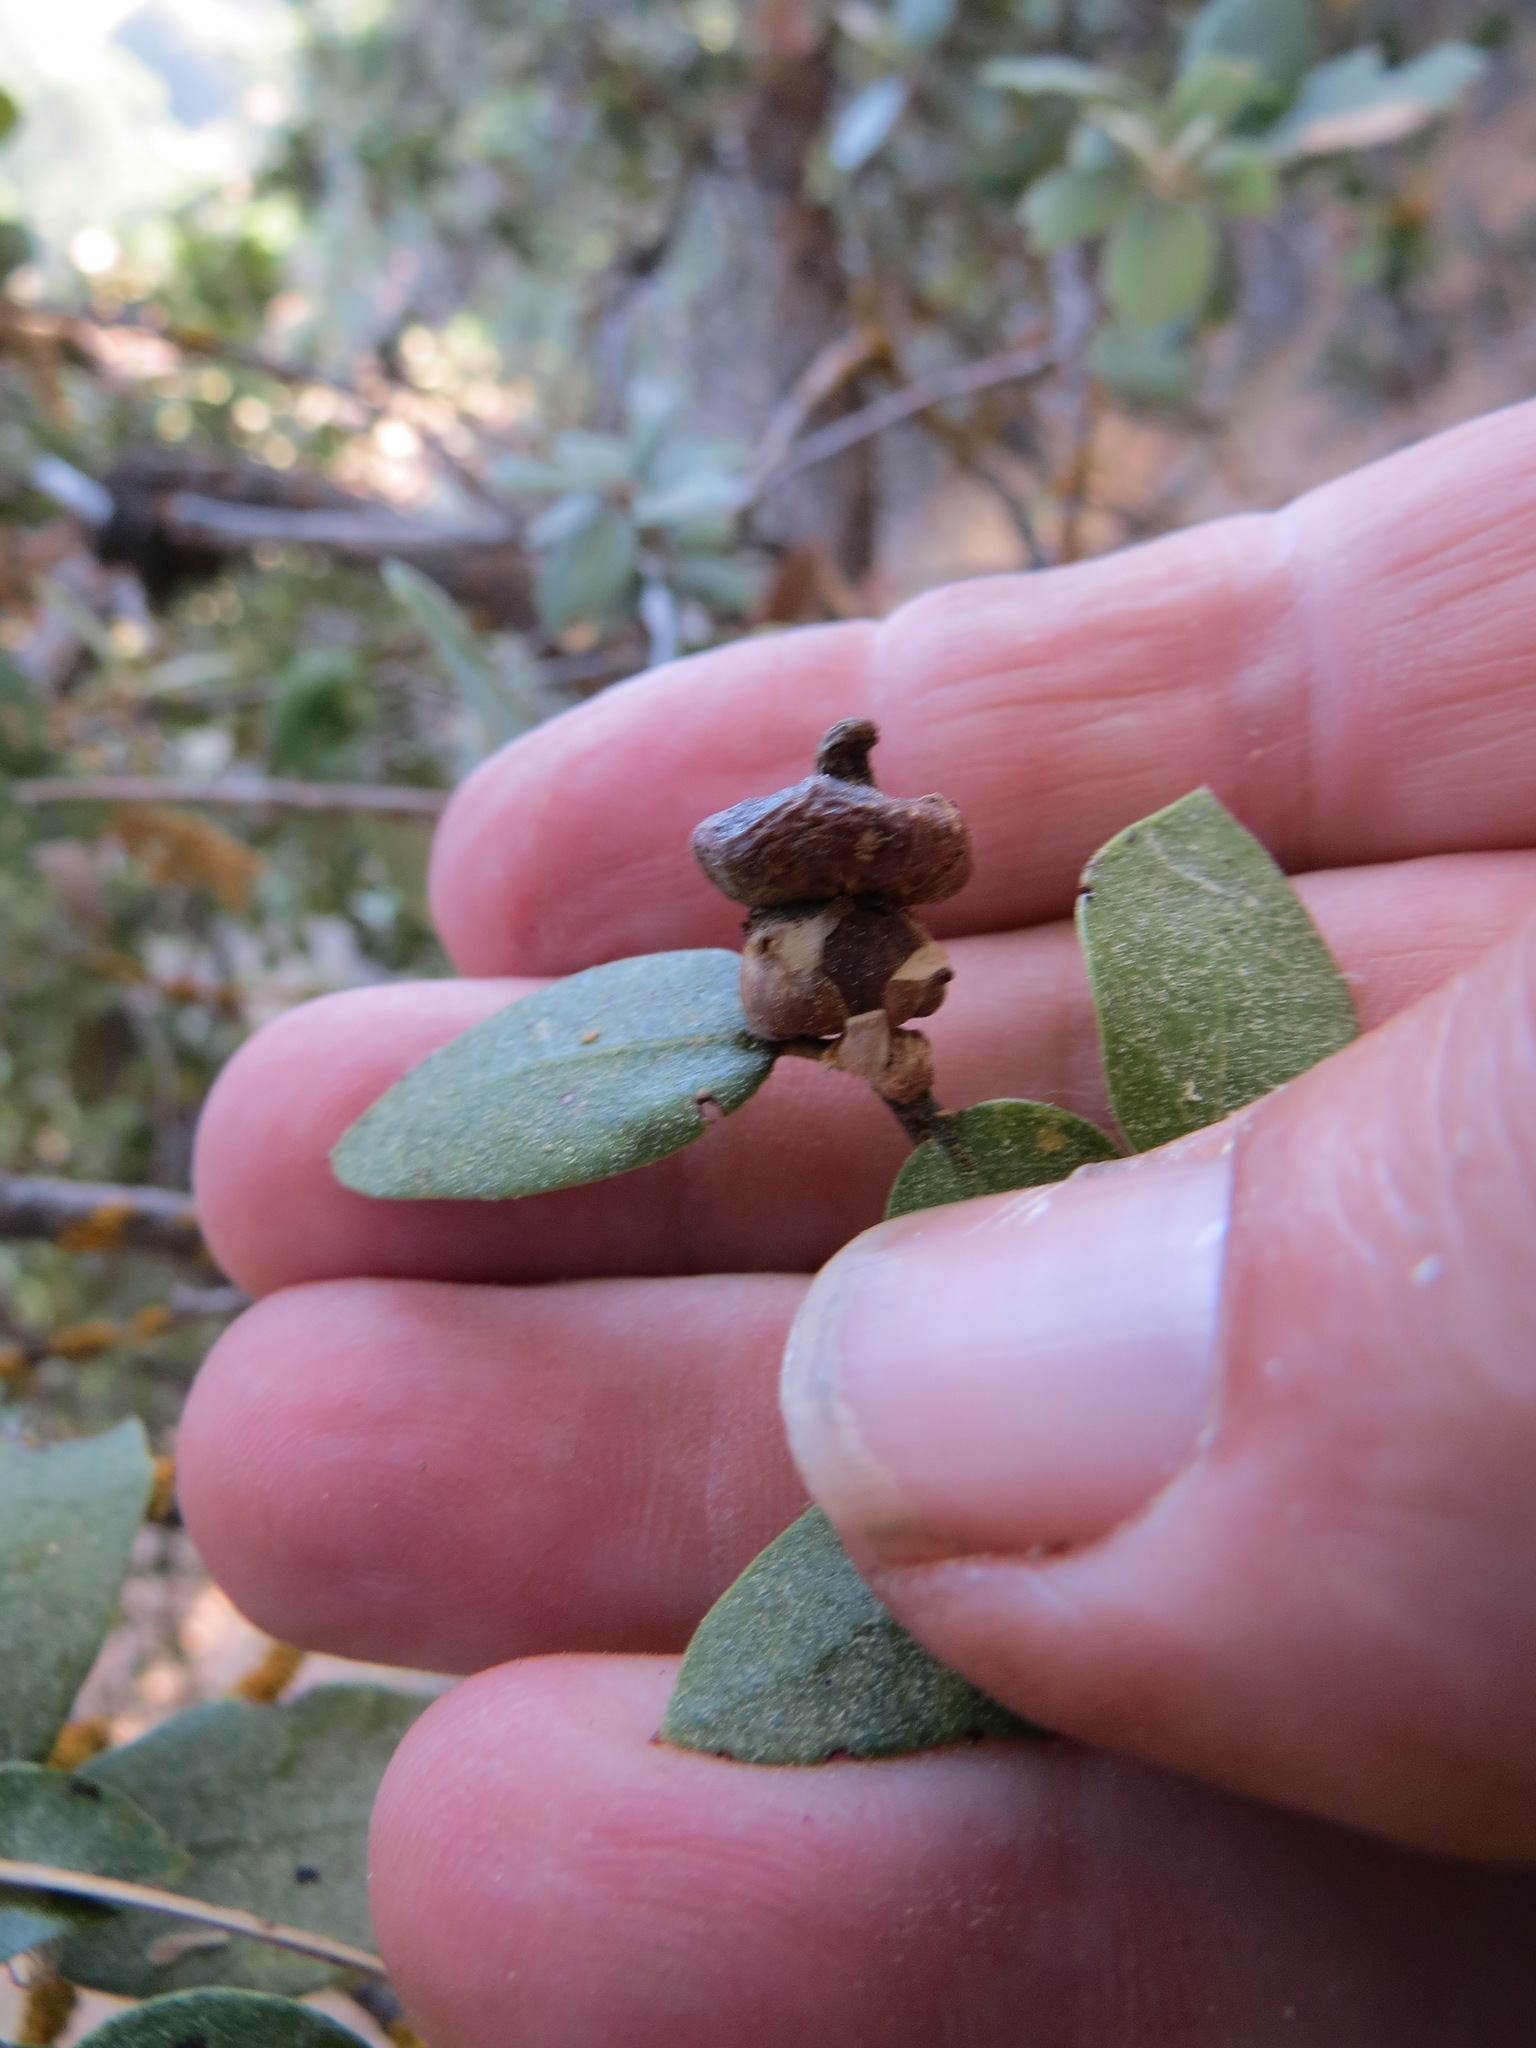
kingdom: Animalia
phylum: Arthropoda
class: Insecta
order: Hymenoptera
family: Cynipidae
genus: Heteroecus
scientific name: Heteroecus
